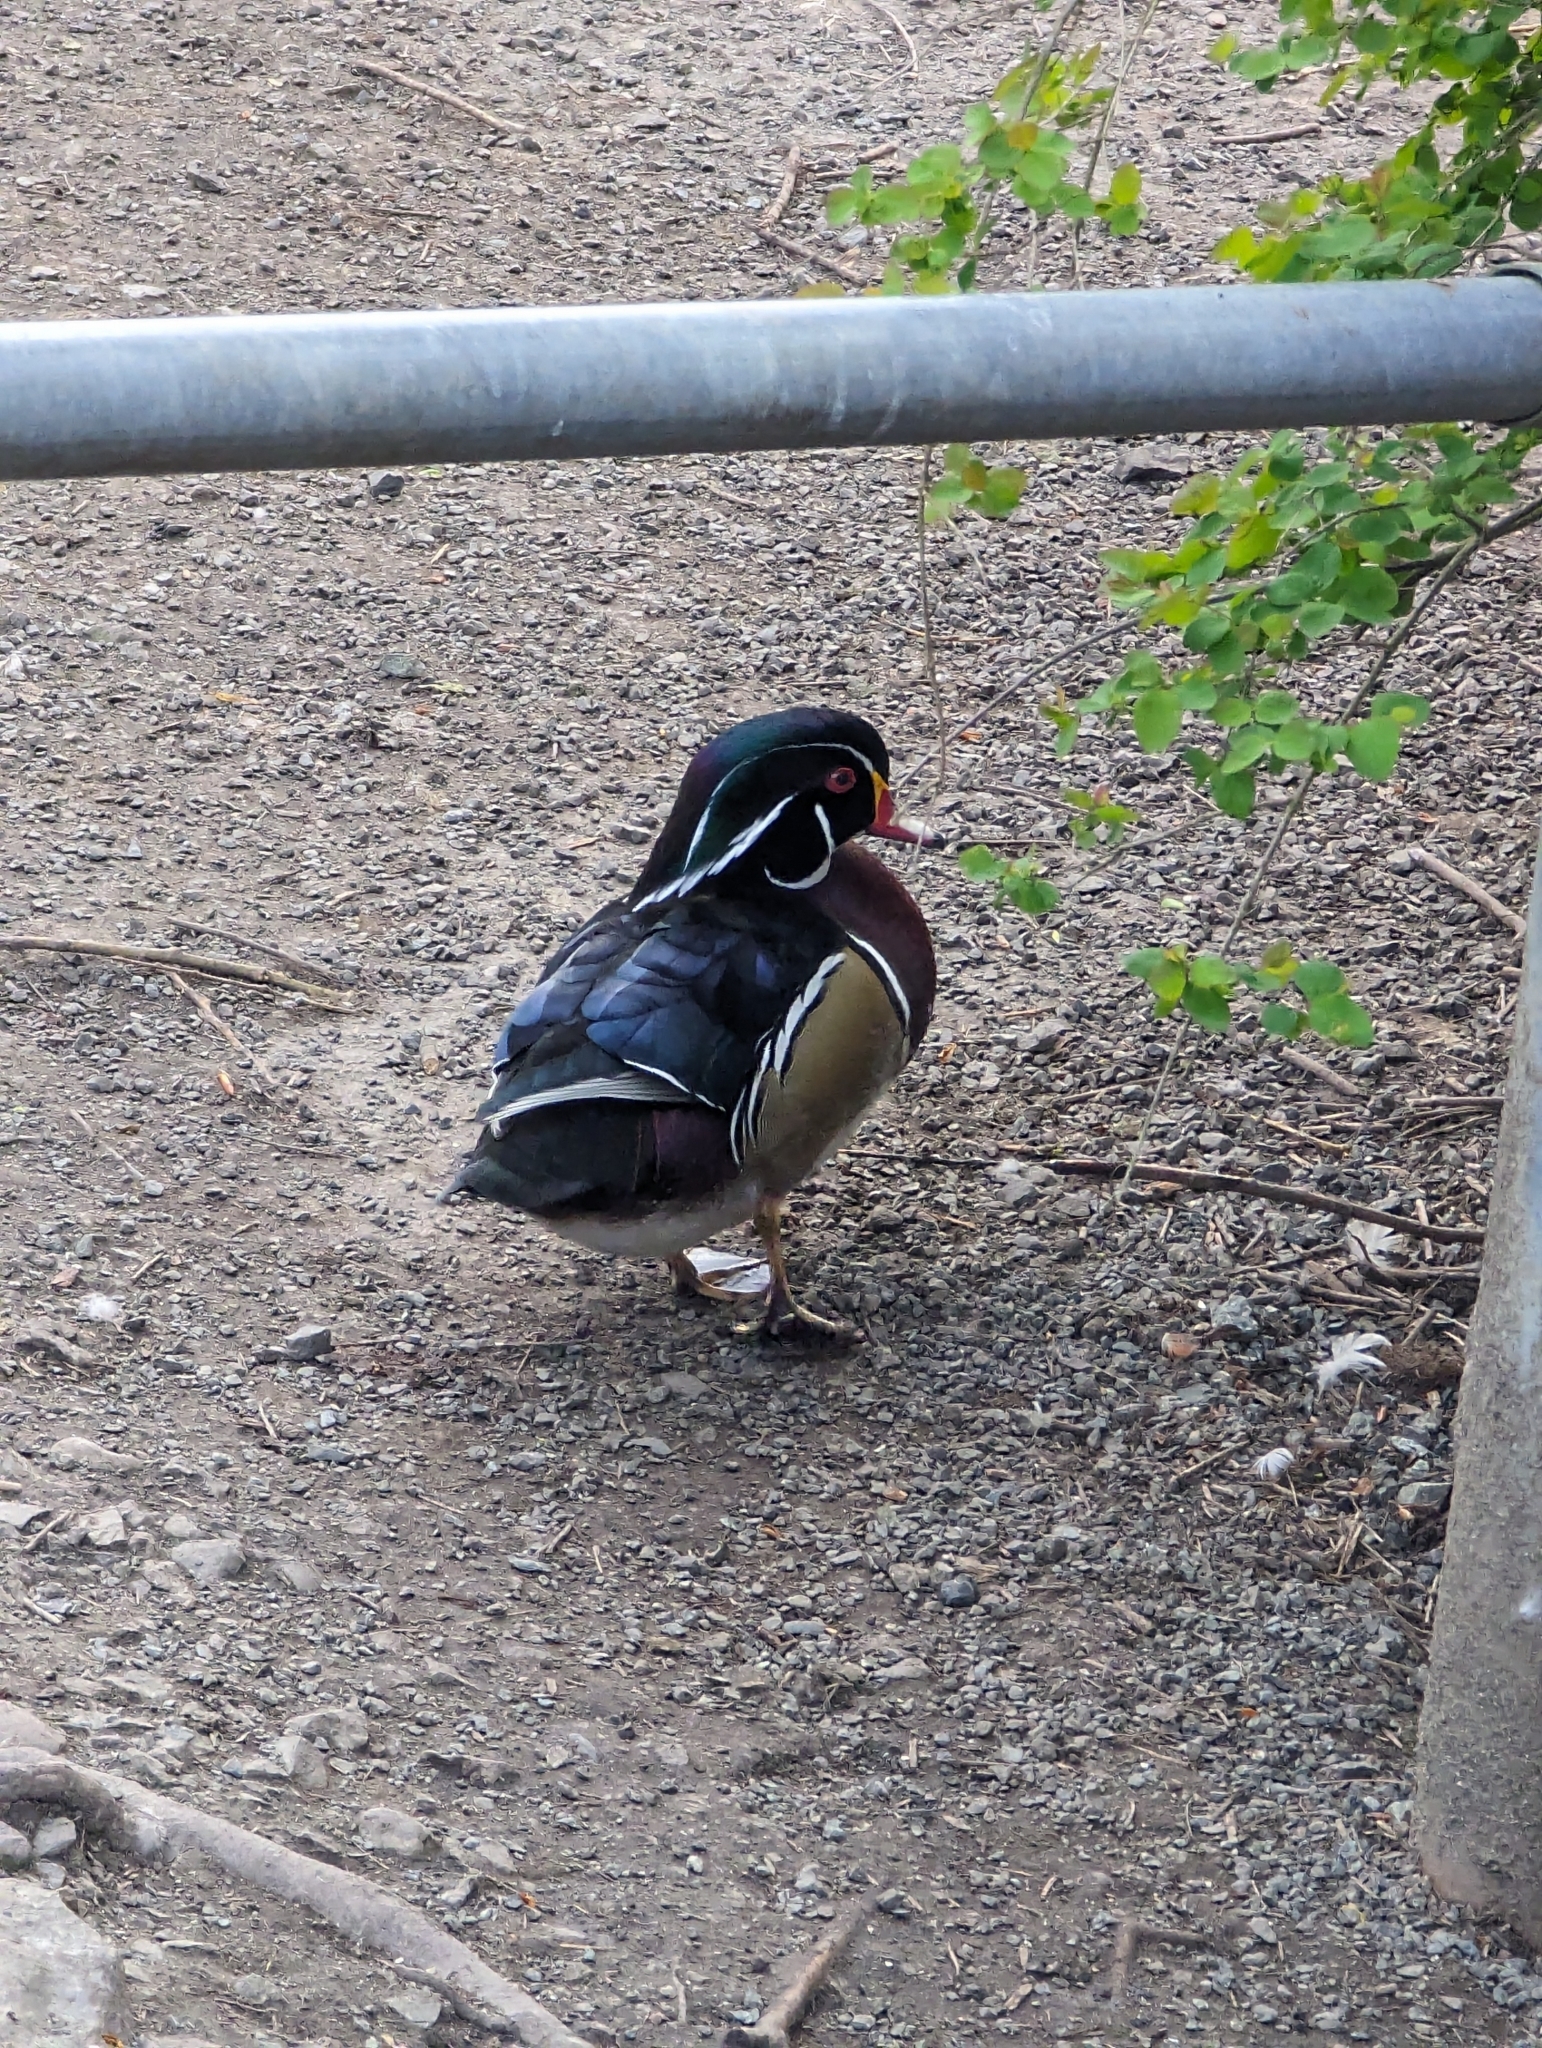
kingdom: Animalia
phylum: Chordata
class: Aves
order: Anseriformes
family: Anatidae
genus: Aix
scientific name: Aix sponsa
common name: Wood duck
